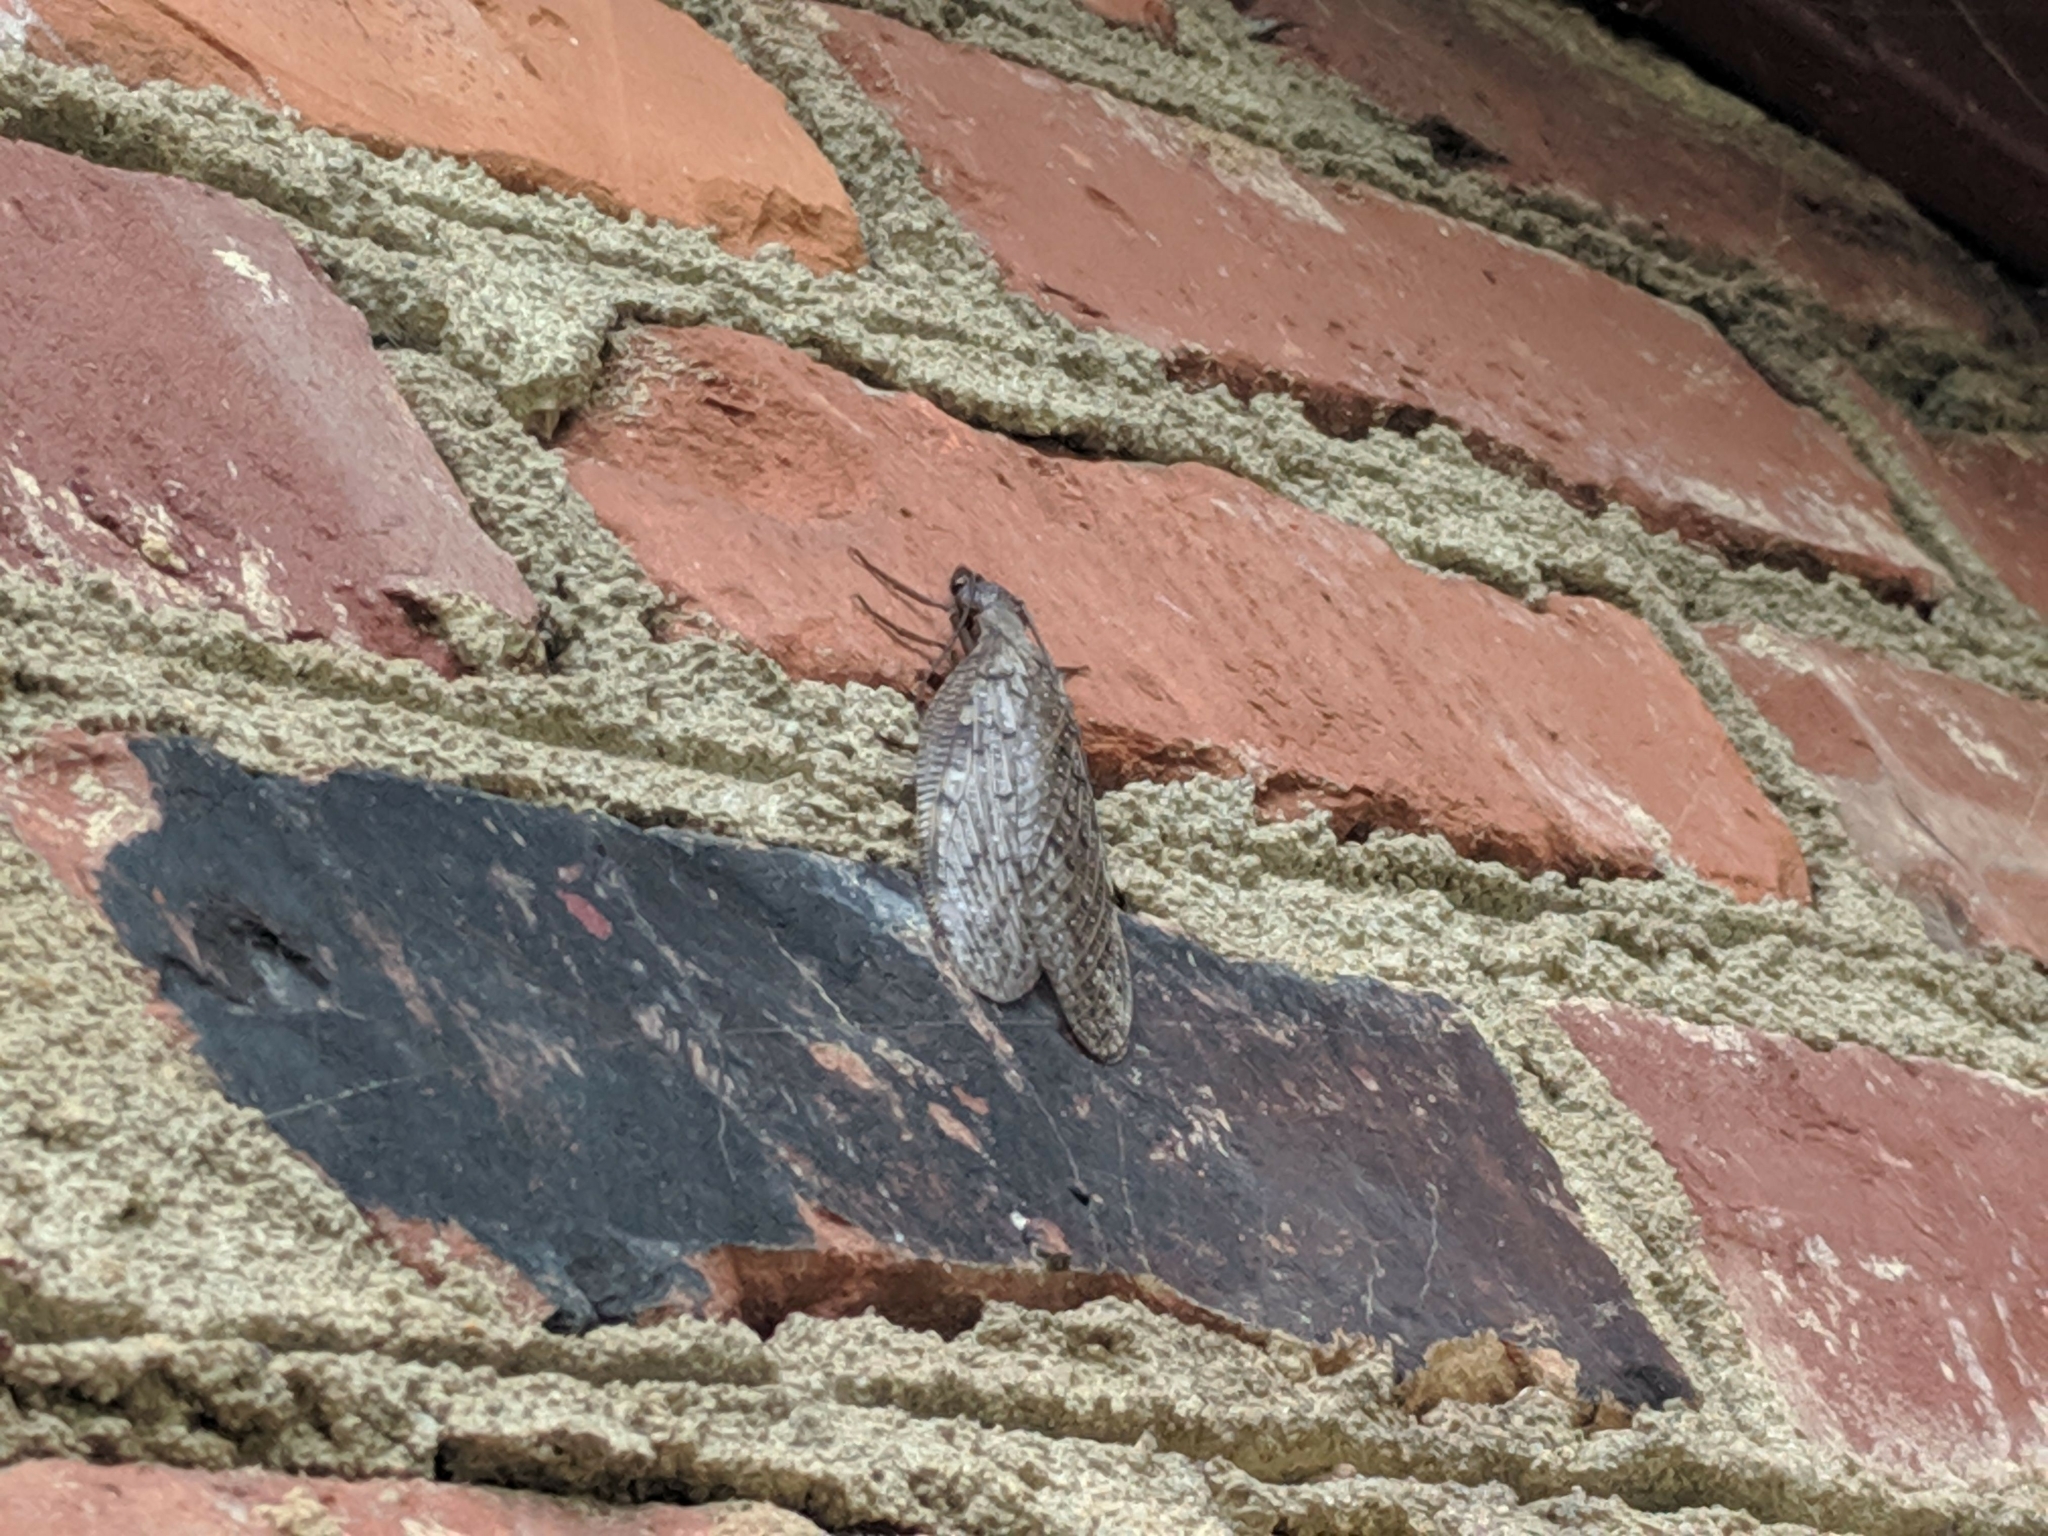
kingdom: Animalia
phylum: Arthropoda
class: Insecta
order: Megaloptera
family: Corydalidae
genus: Corydalus
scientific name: Corydalus cornutus
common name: Dobsonfly
